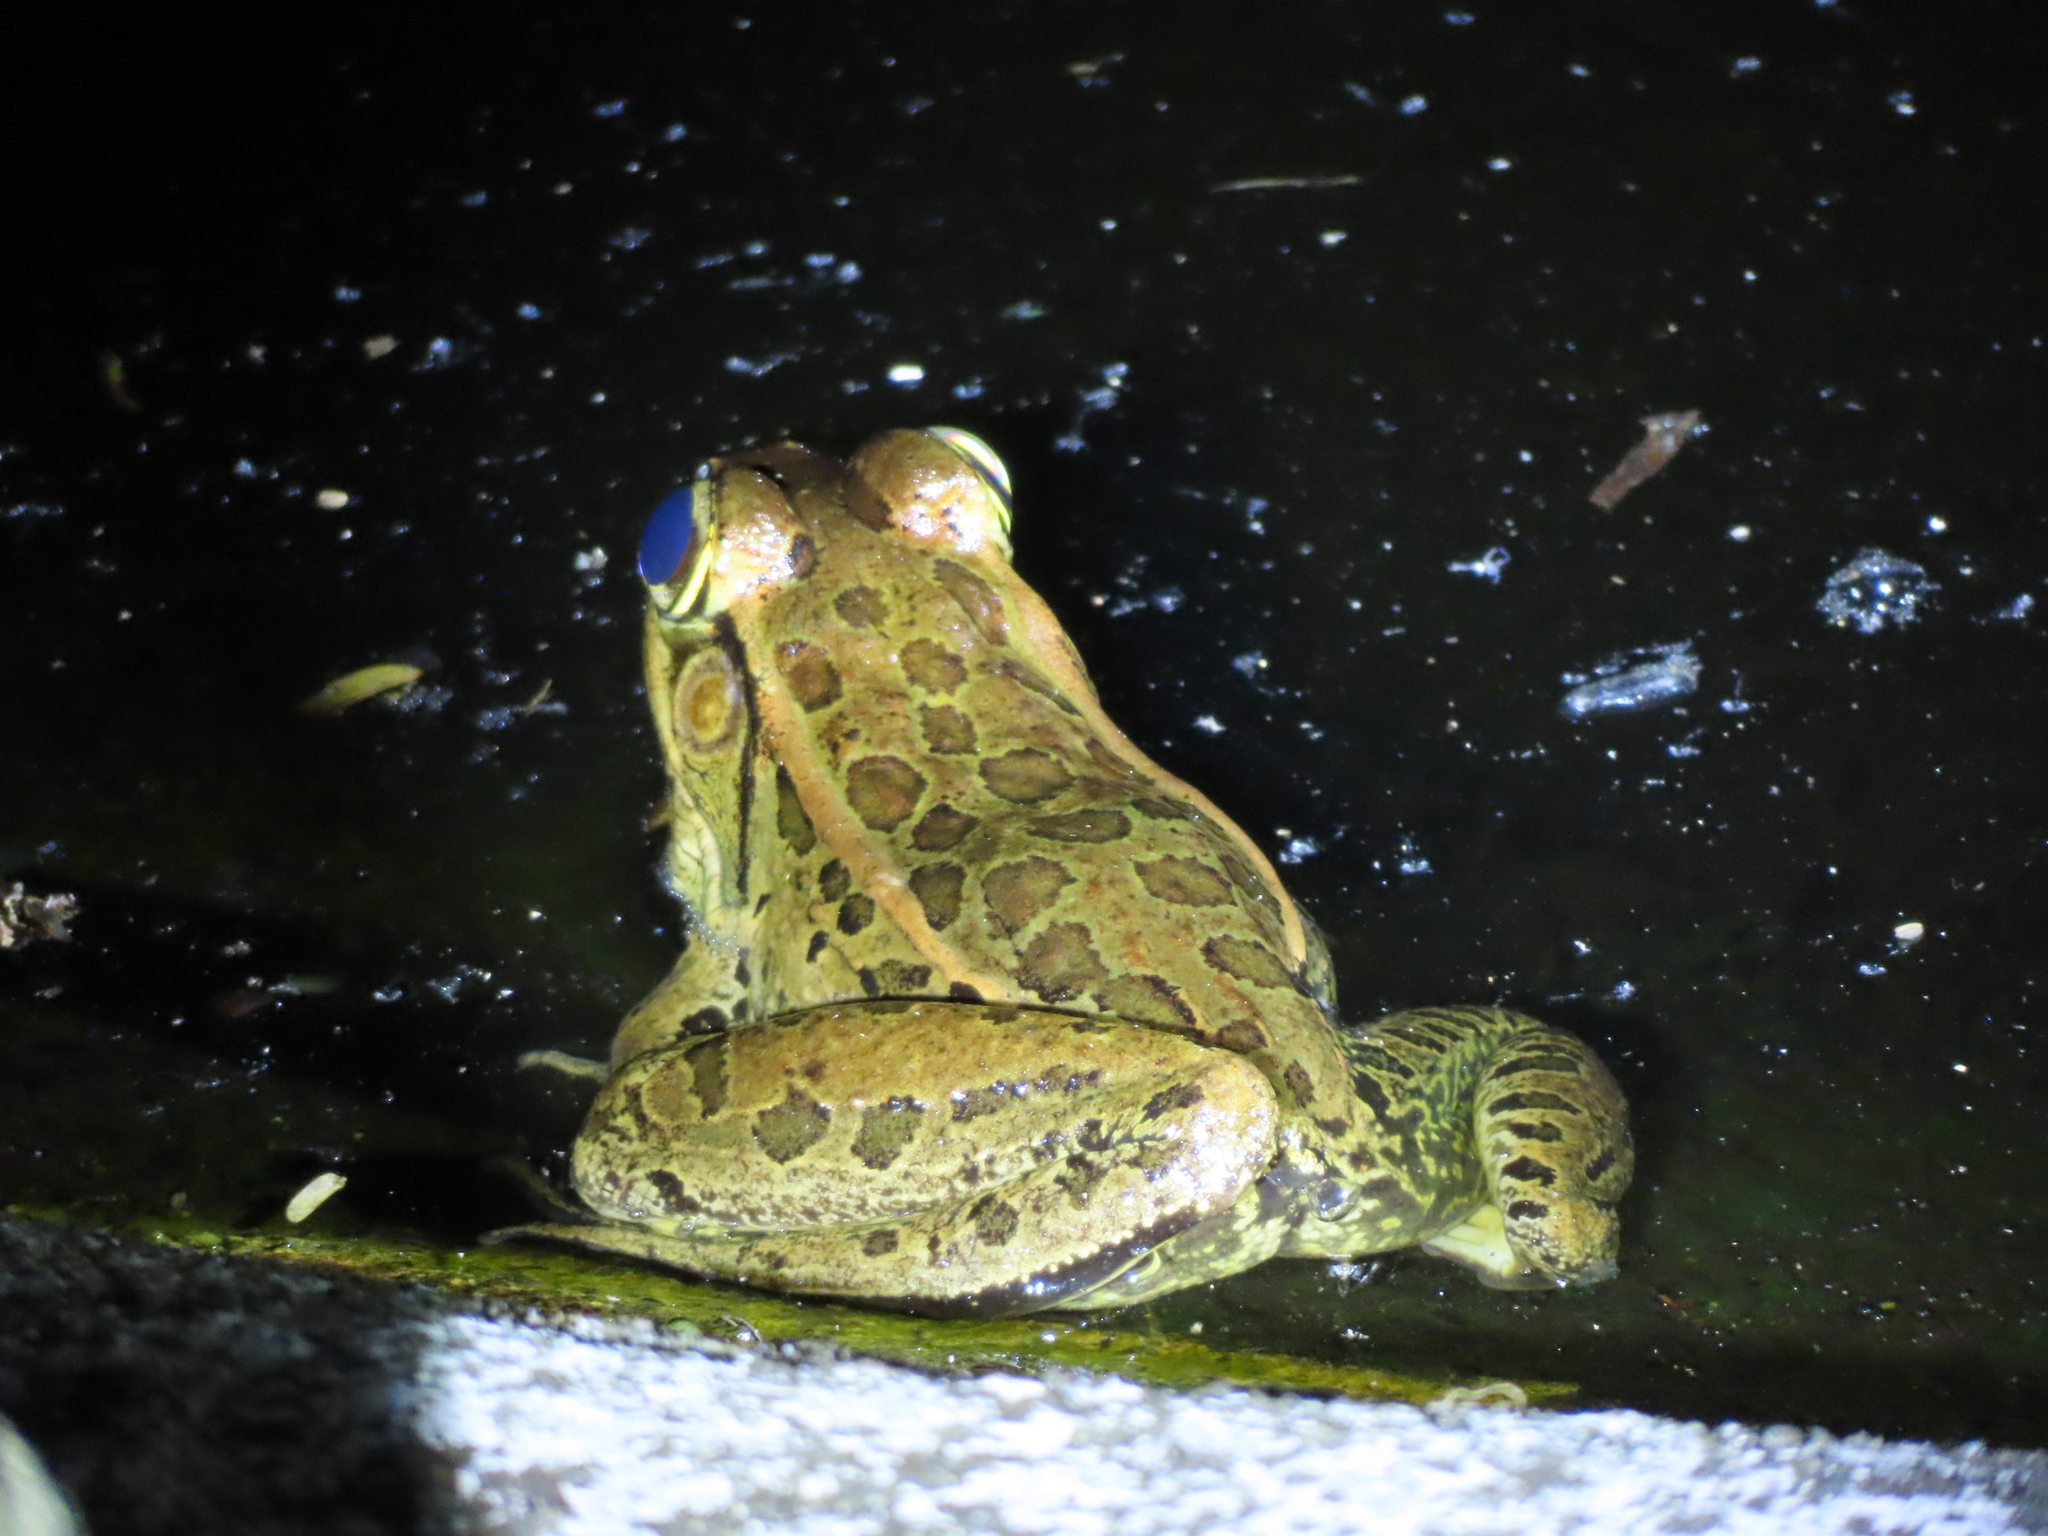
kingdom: Animalia
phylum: Chordata
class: Amphibia
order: Anura
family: Ranidae
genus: Lithobates
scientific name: Lithobates brownorum
